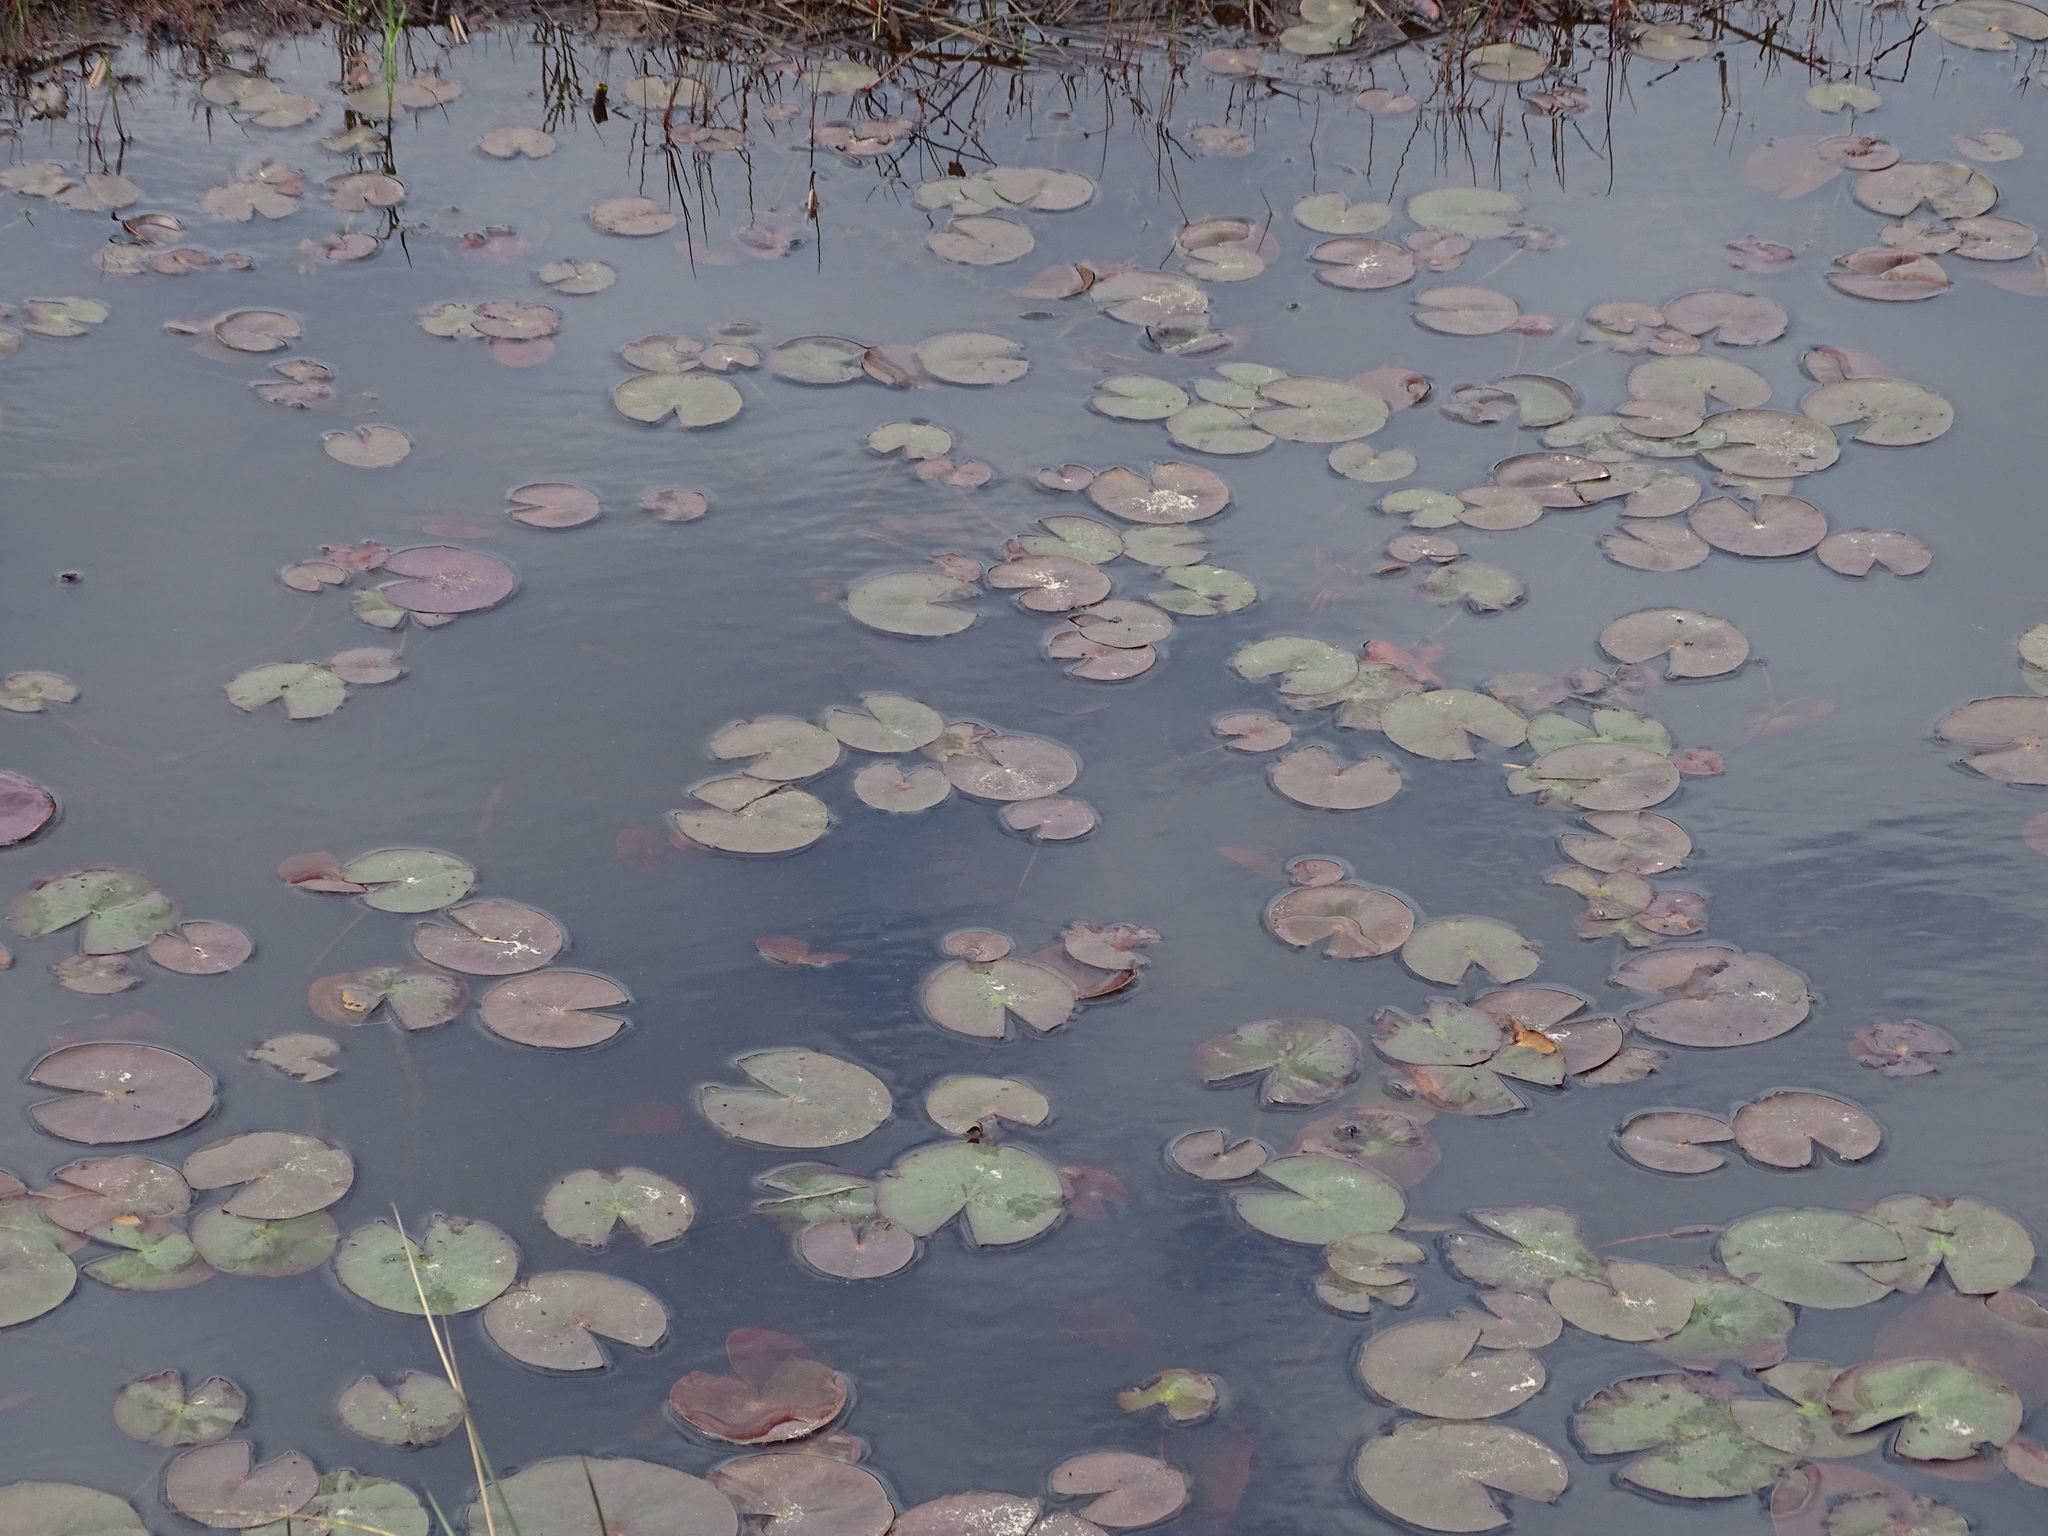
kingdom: Plantae
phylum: Tracheophyta
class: Magnoliopsida
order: Nymphaeales
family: Nymphaeaceae
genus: Nymphaea
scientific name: Nymphaea odorata
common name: Fragrant water-lily
